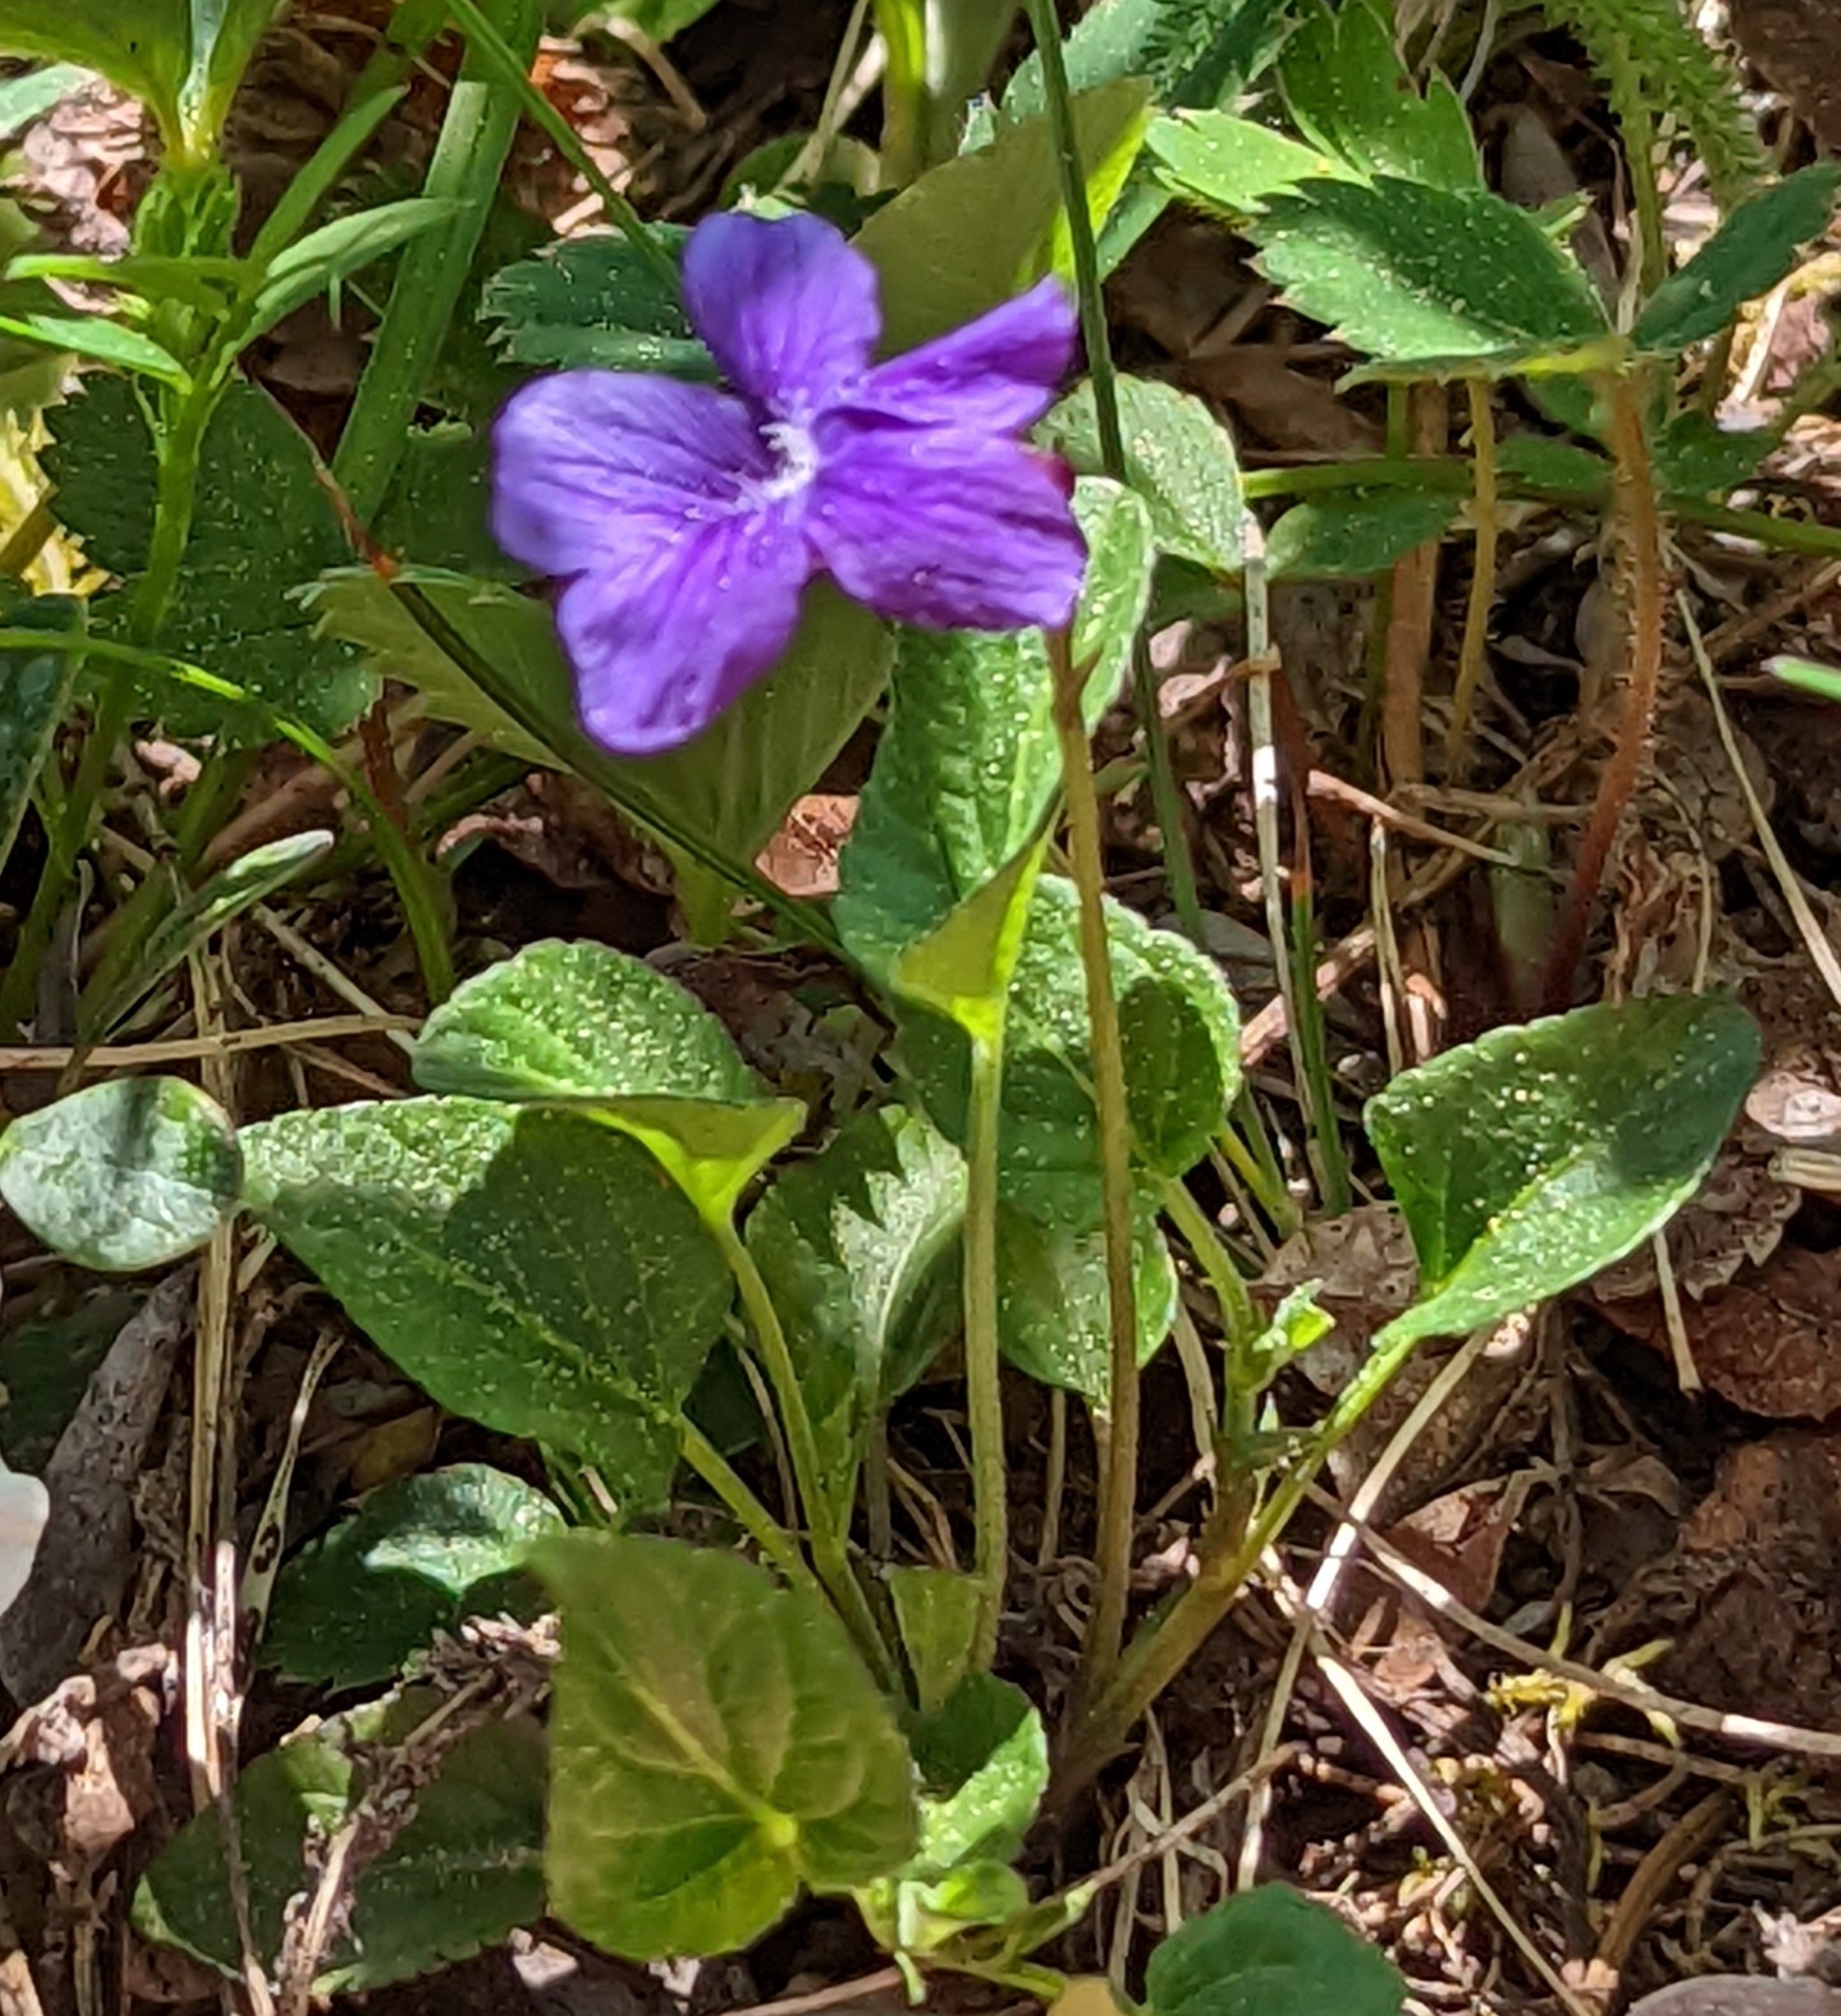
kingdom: Plantae
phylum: Tracheophyta
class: Magnoliopsida
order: Malpighiales
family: Violaceae
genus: Viola
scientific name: Viola adunca
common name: Sand violet
